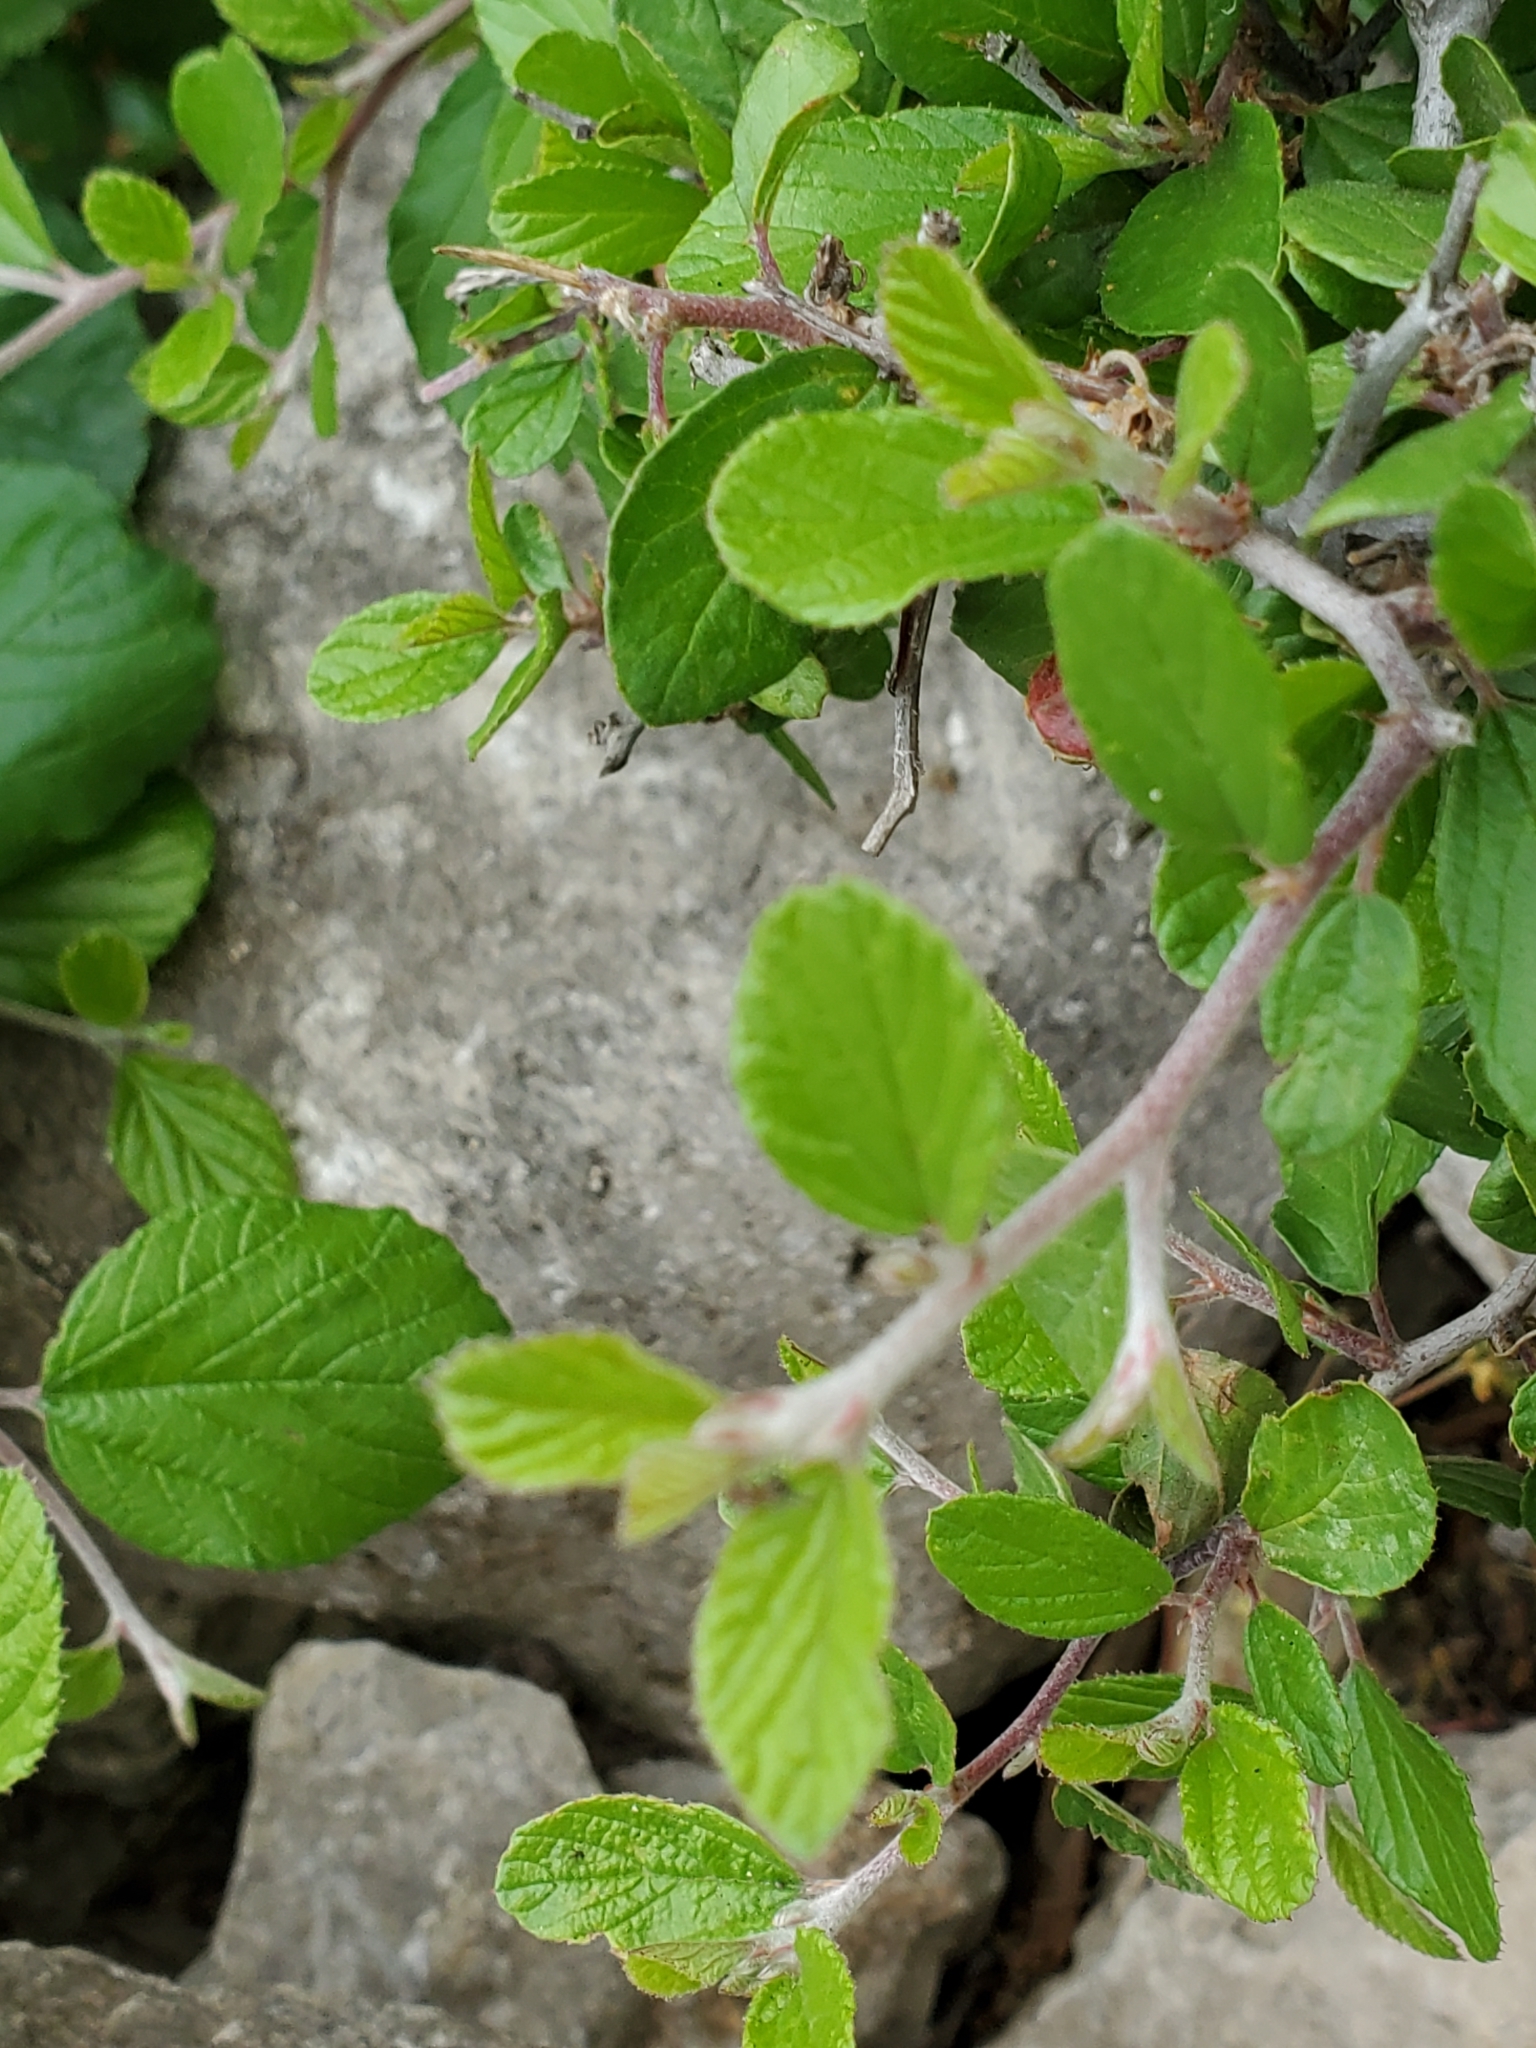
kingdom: Plantae
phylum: Tracheophyta
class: Magnoliopsida
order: Rosales
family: Rhamnaceae
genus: Colubrina
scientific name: Colubrina texensis
